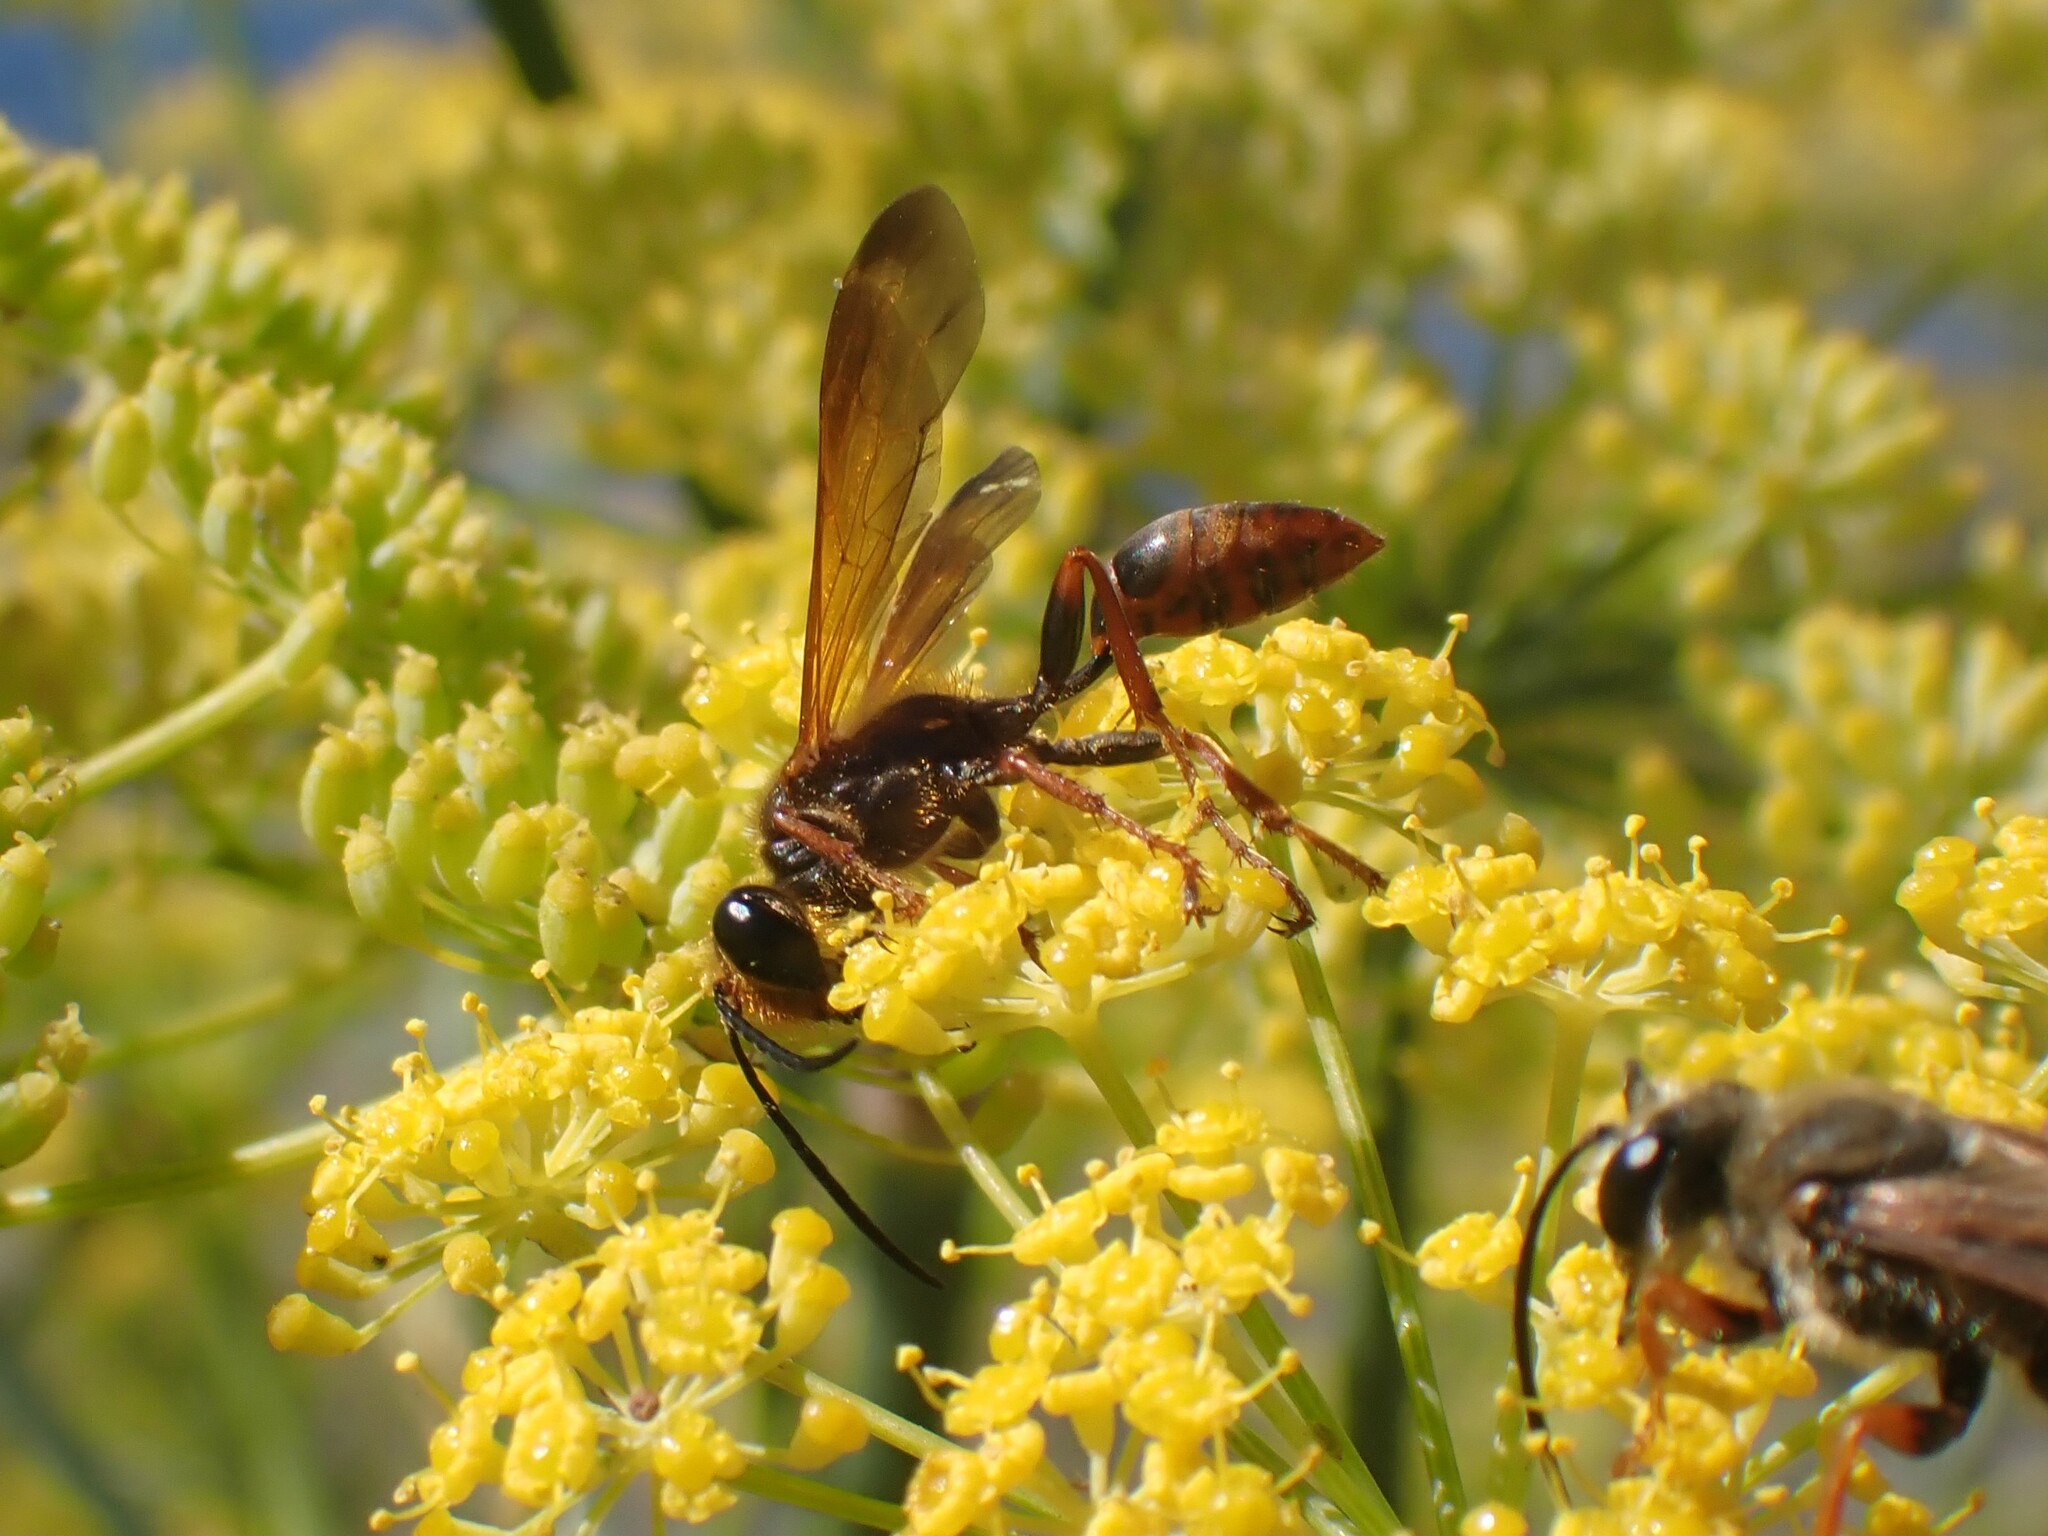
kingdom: Animalia
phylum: Arthropoda
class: Insecta
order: Hymenoptera
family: Sphecidae
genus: Isodontia
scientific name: Isodontia elegans
